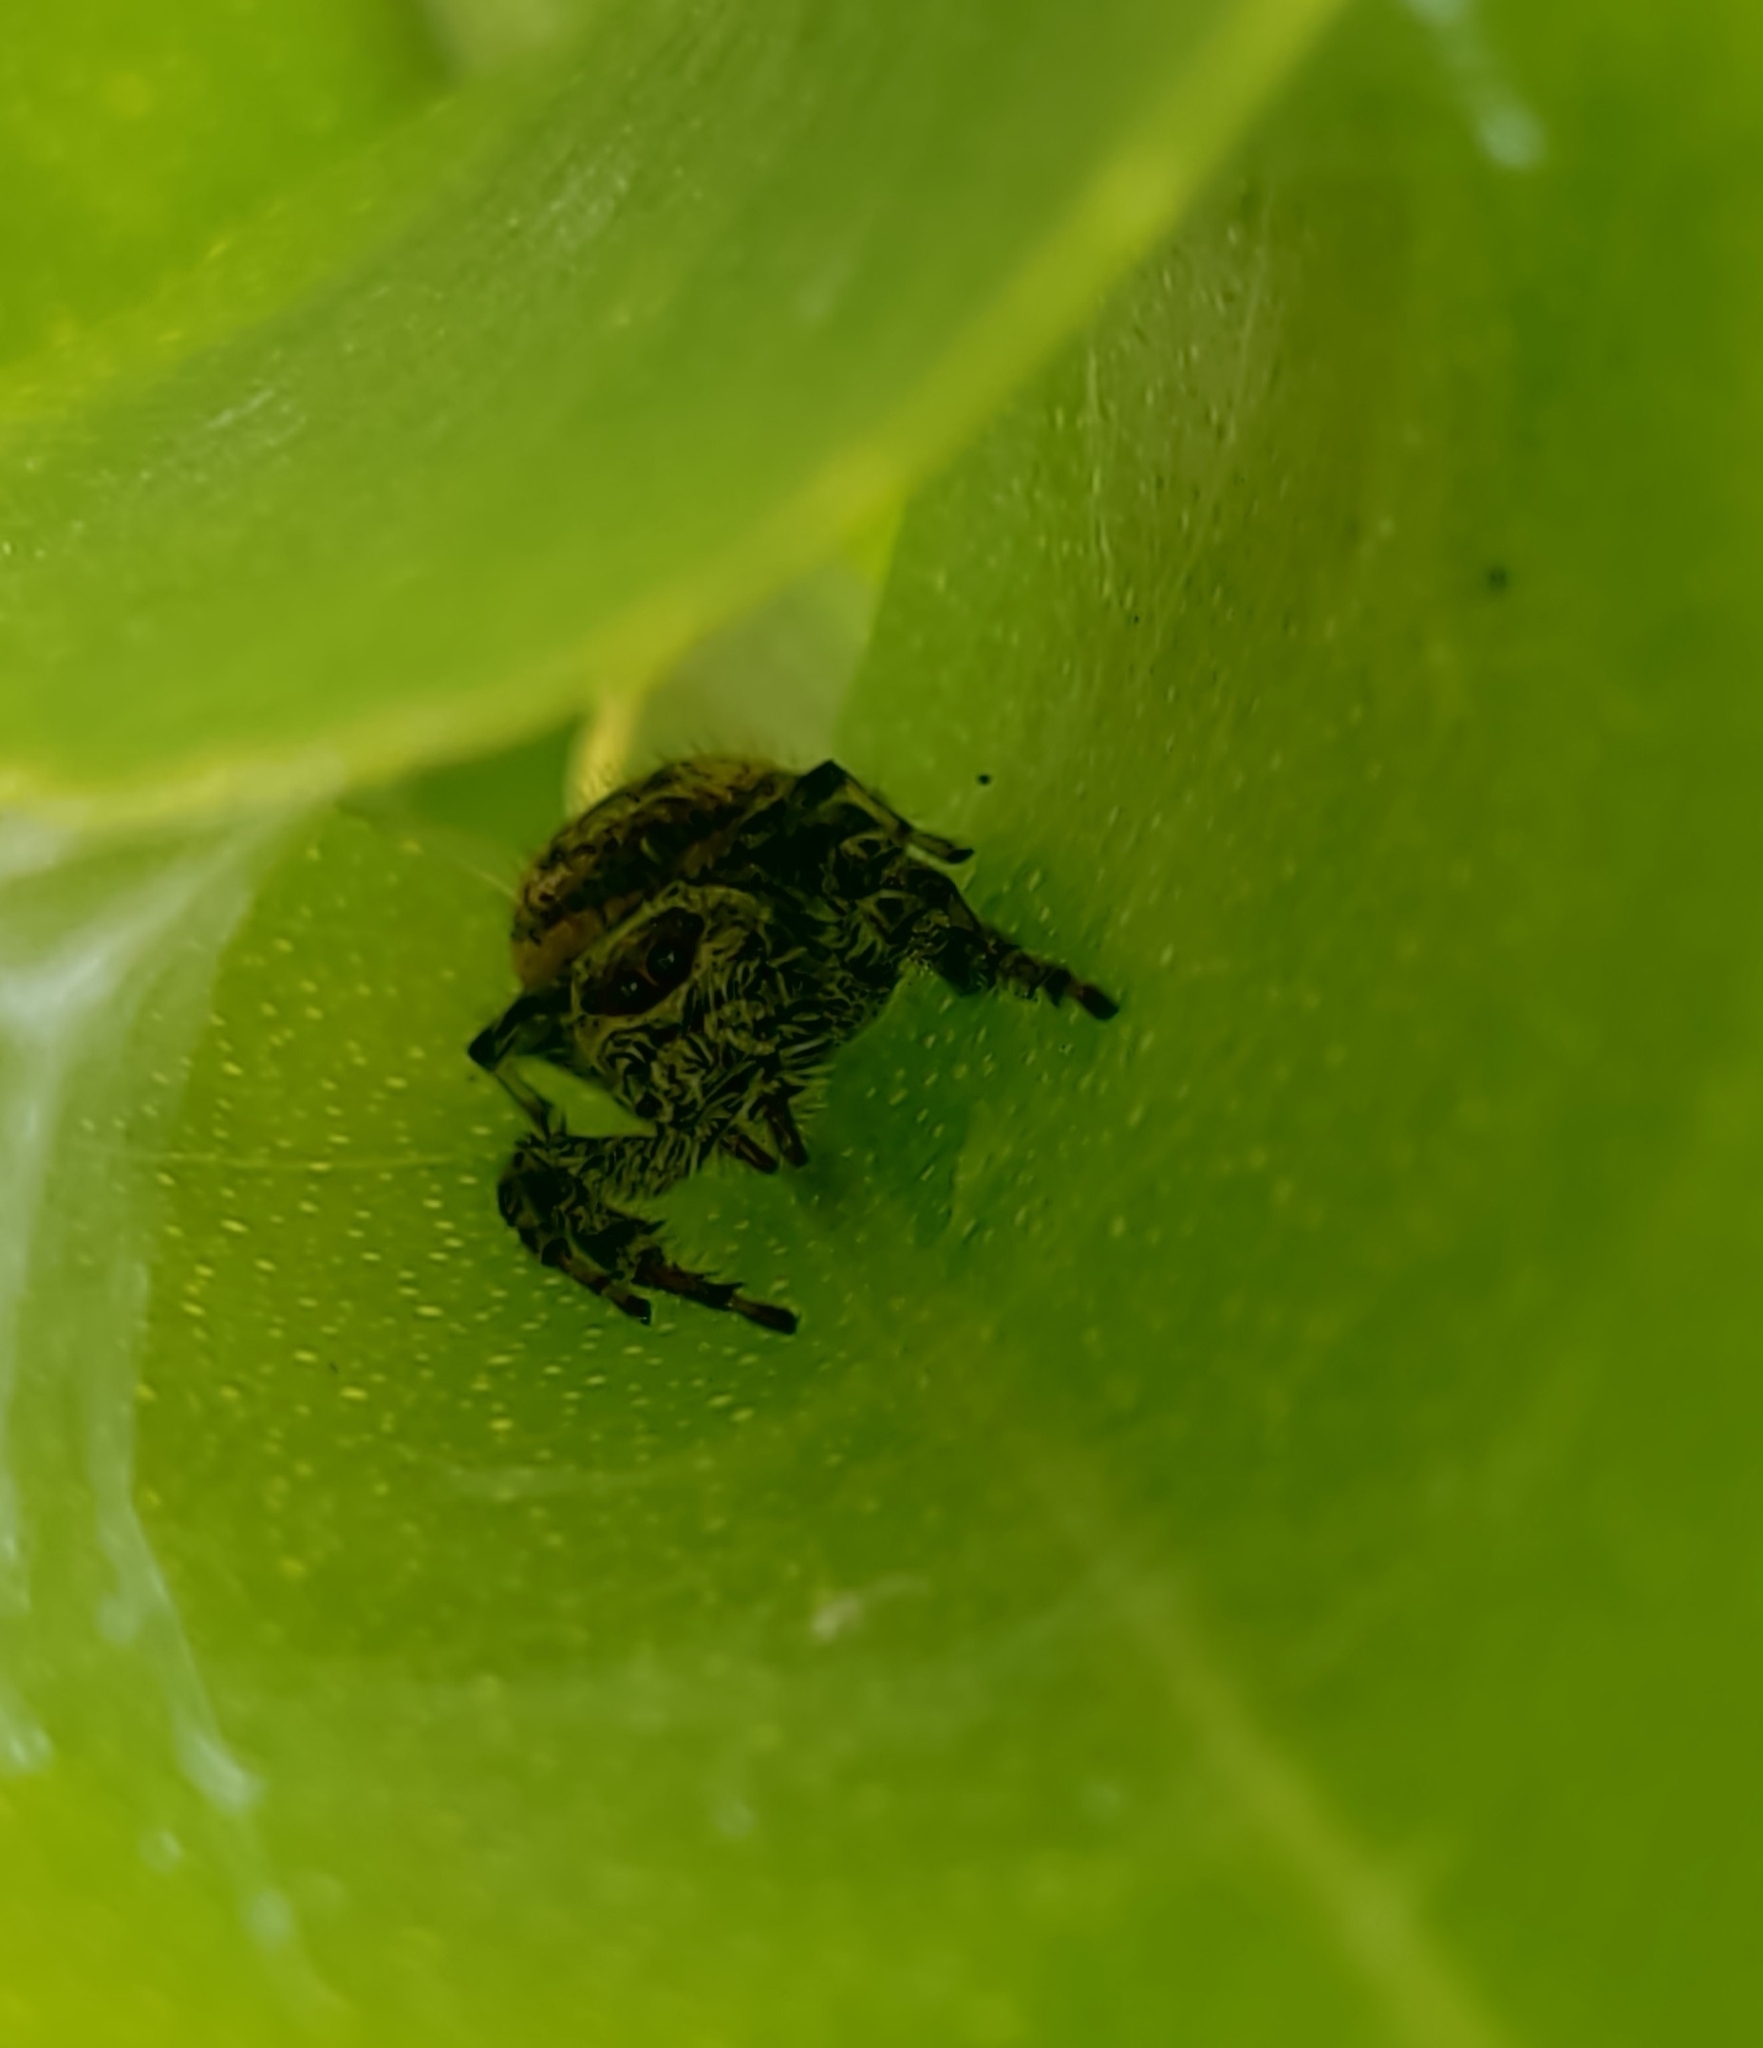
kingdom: Animalia
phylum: Arthropoda
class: Arachnida
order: Araneae
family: Salticidae
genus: Paraphidippus
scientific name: Paraphidippus aurantius
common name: Jumping spiders
